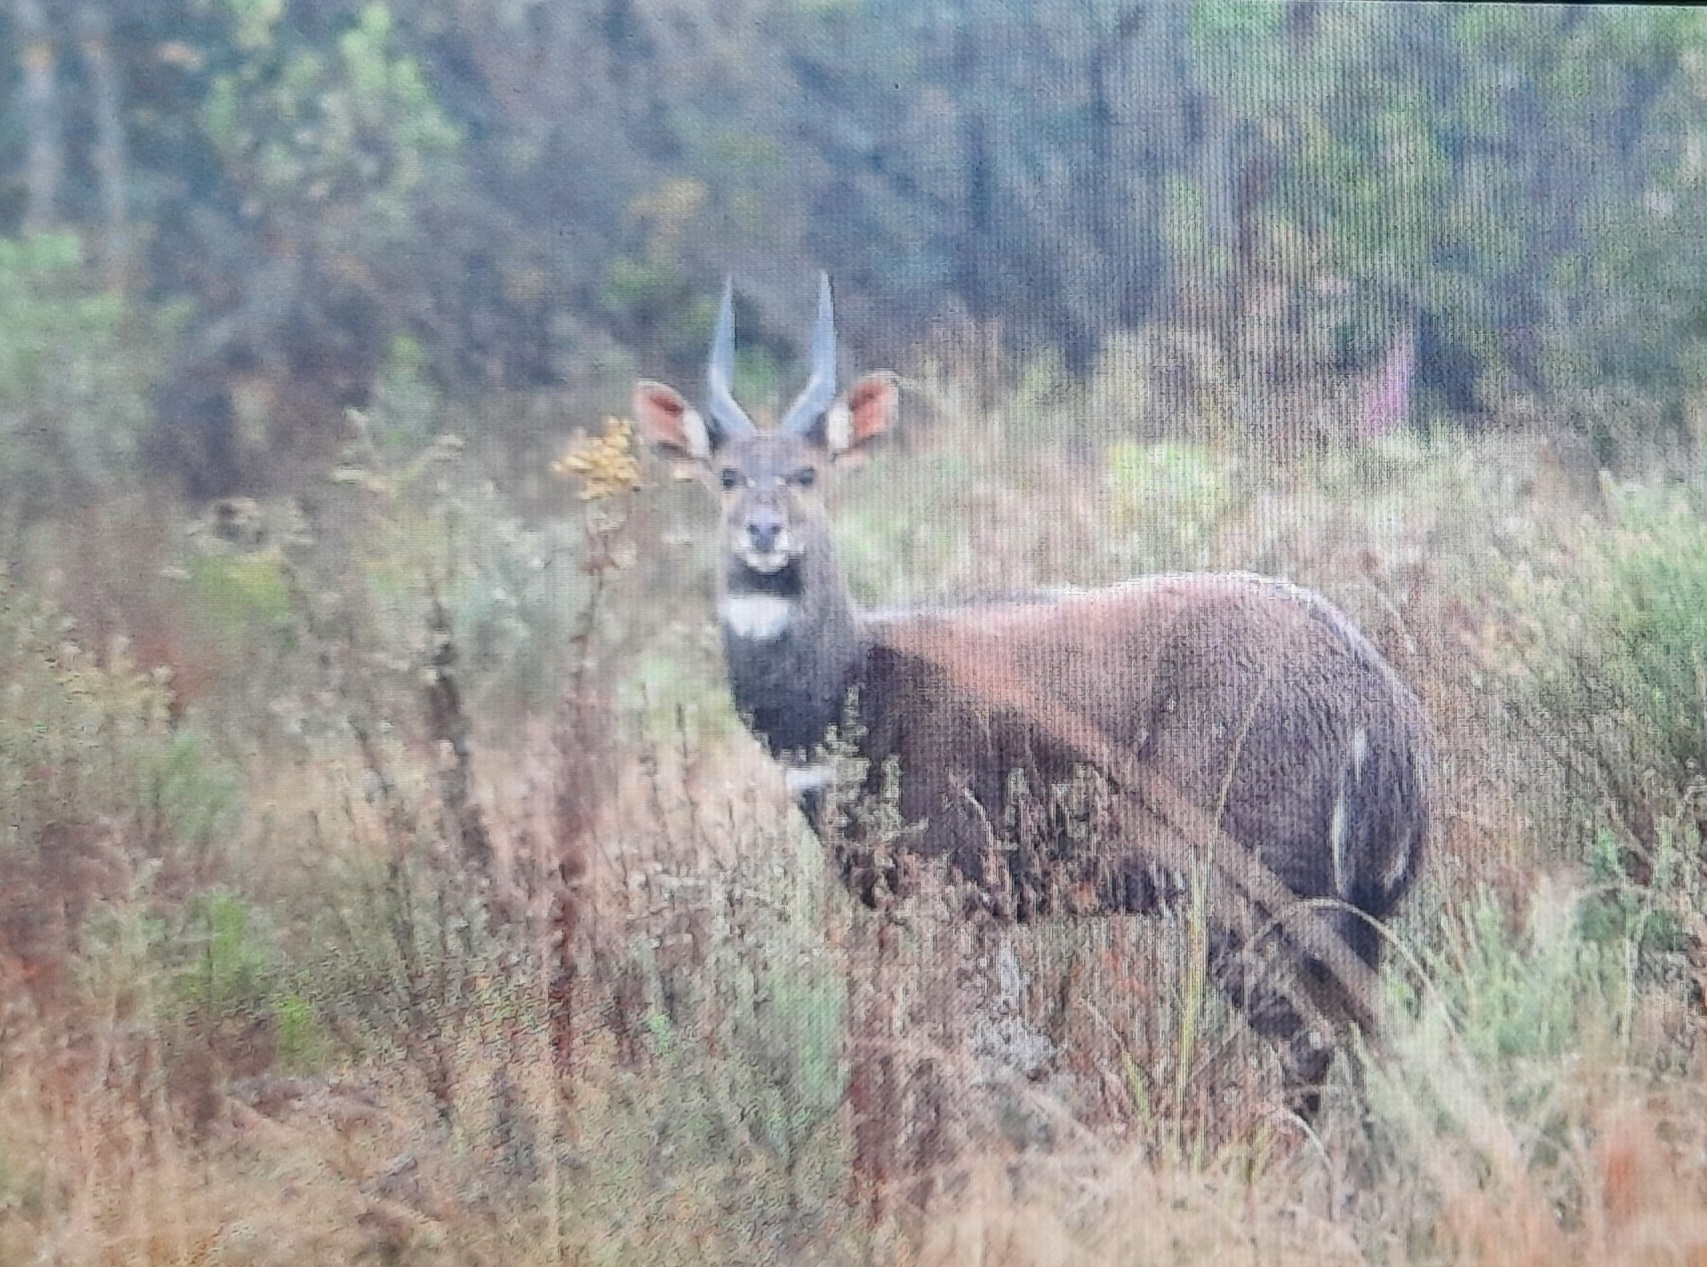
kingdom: Animalia
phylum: Chordata
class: Mammalia
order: Artiodactyla
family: Bovidae
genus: Tragelaphus
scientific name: Tragelaphus scriptus
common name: Bushbuck
